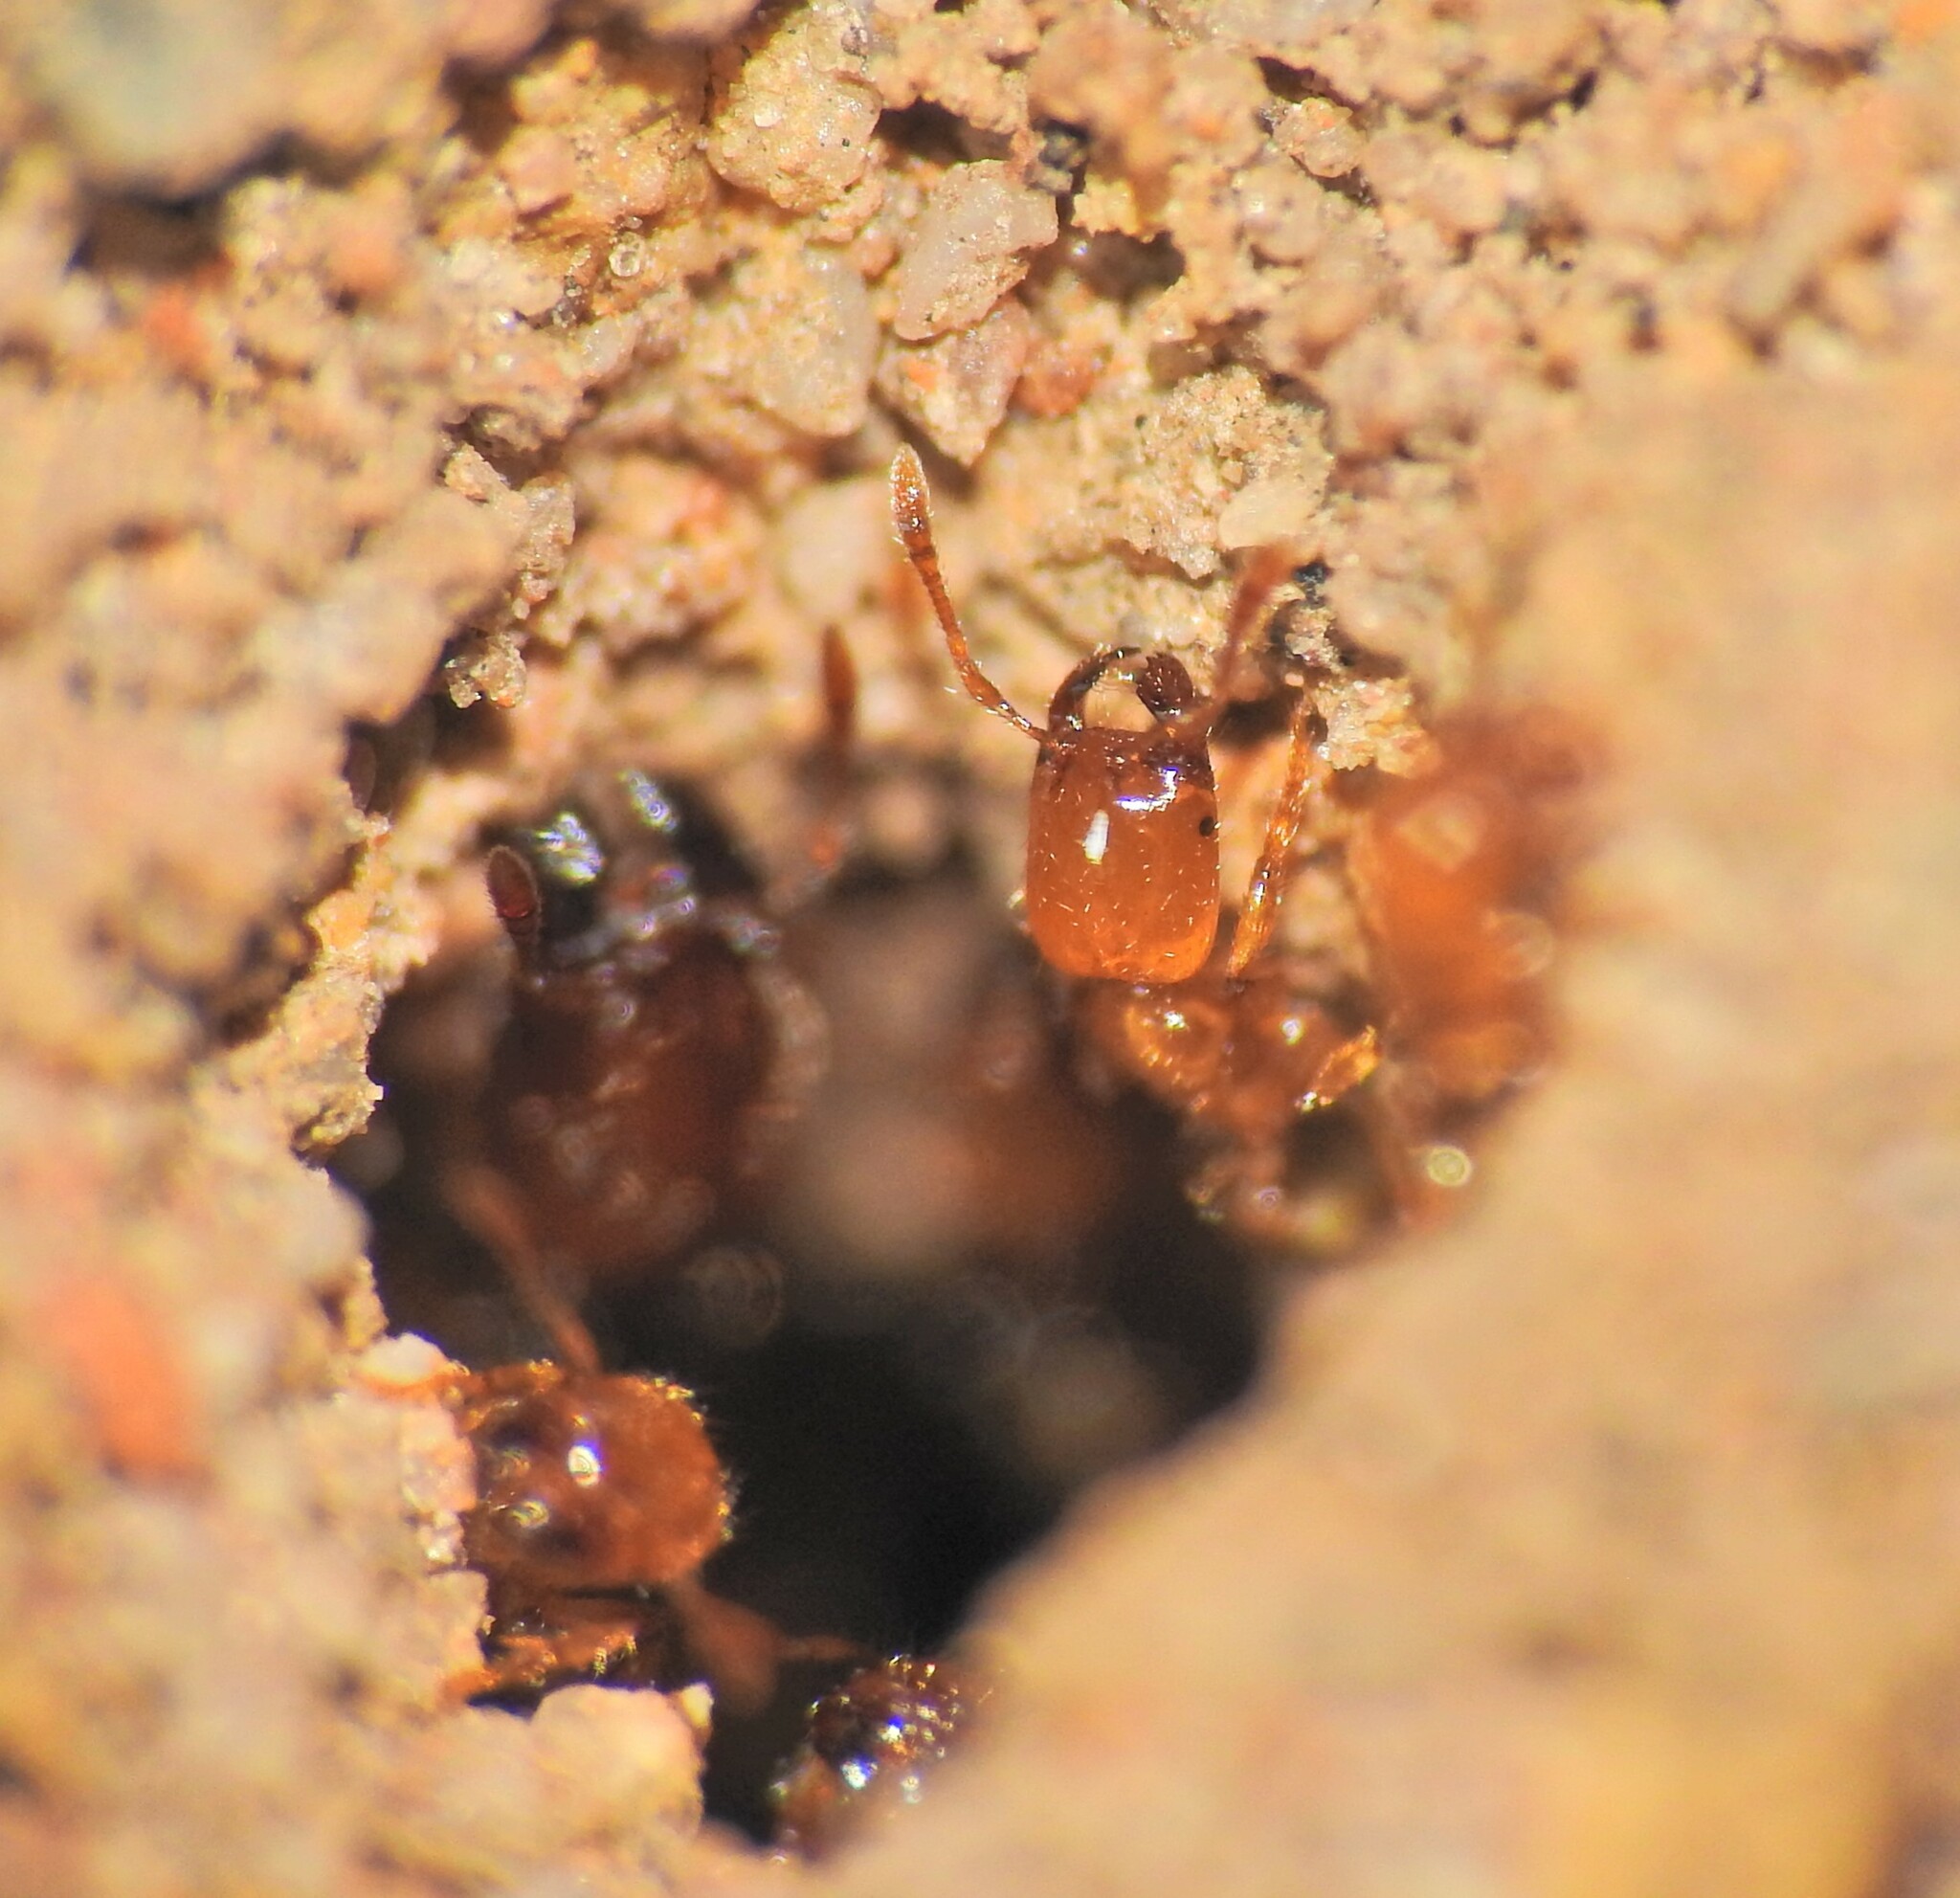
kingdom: Animalia
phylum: Arthropoda
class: Insecta
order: Hymenoptera
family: Formicidae
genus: Pheidole
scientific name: Pheidole
